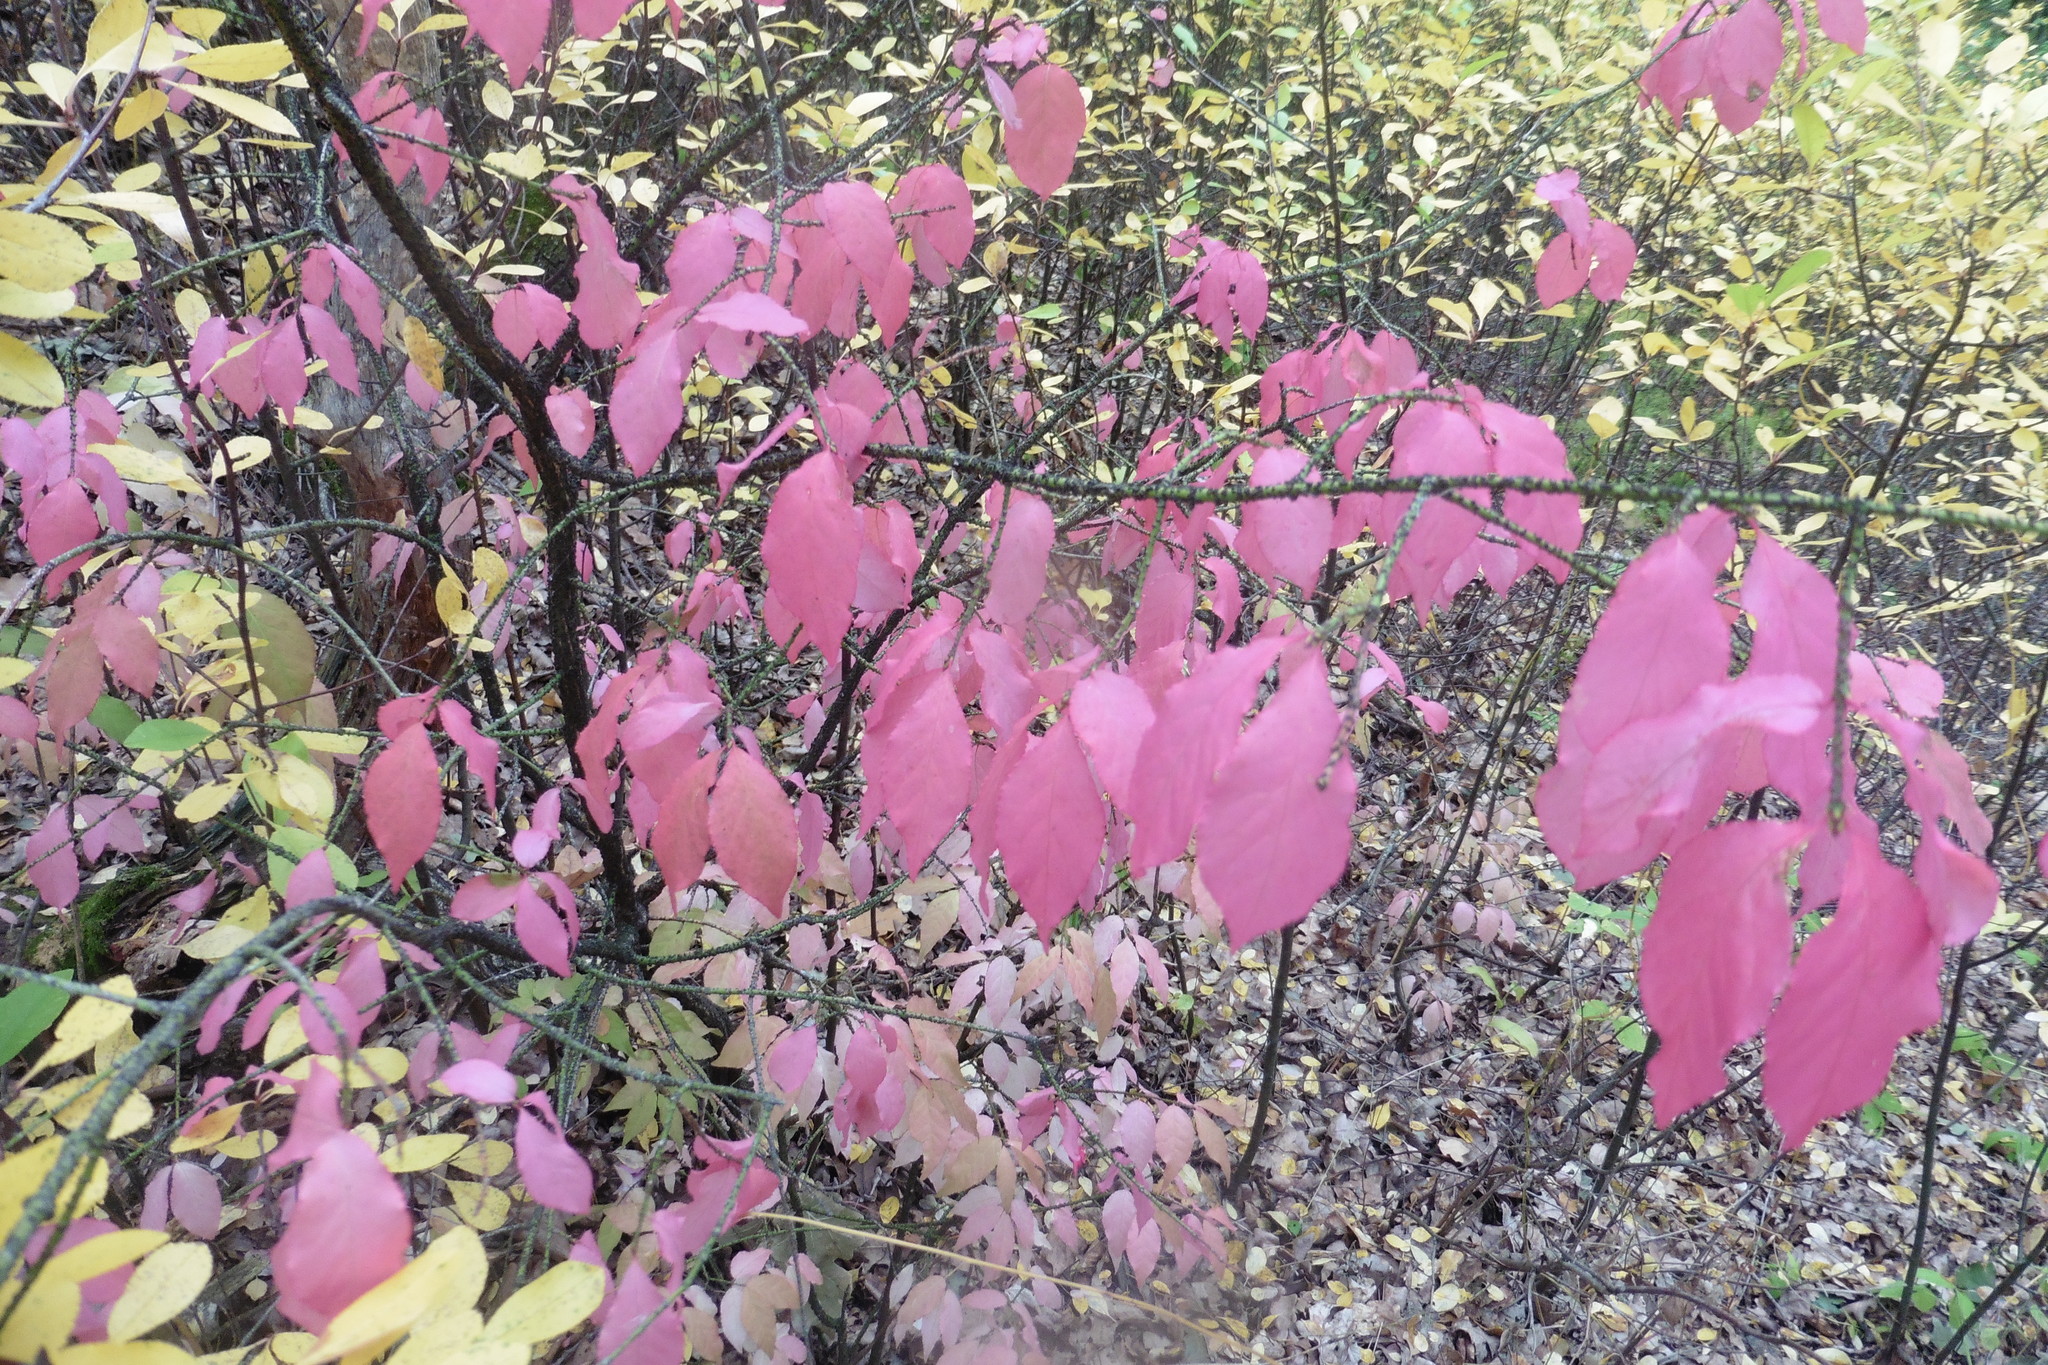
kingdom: Plantae
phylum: Tracheophyta
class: Magnoliopsida
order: Celastrales
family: Celastraceae
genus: Euonymus
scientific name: Euonymus verrucosus
